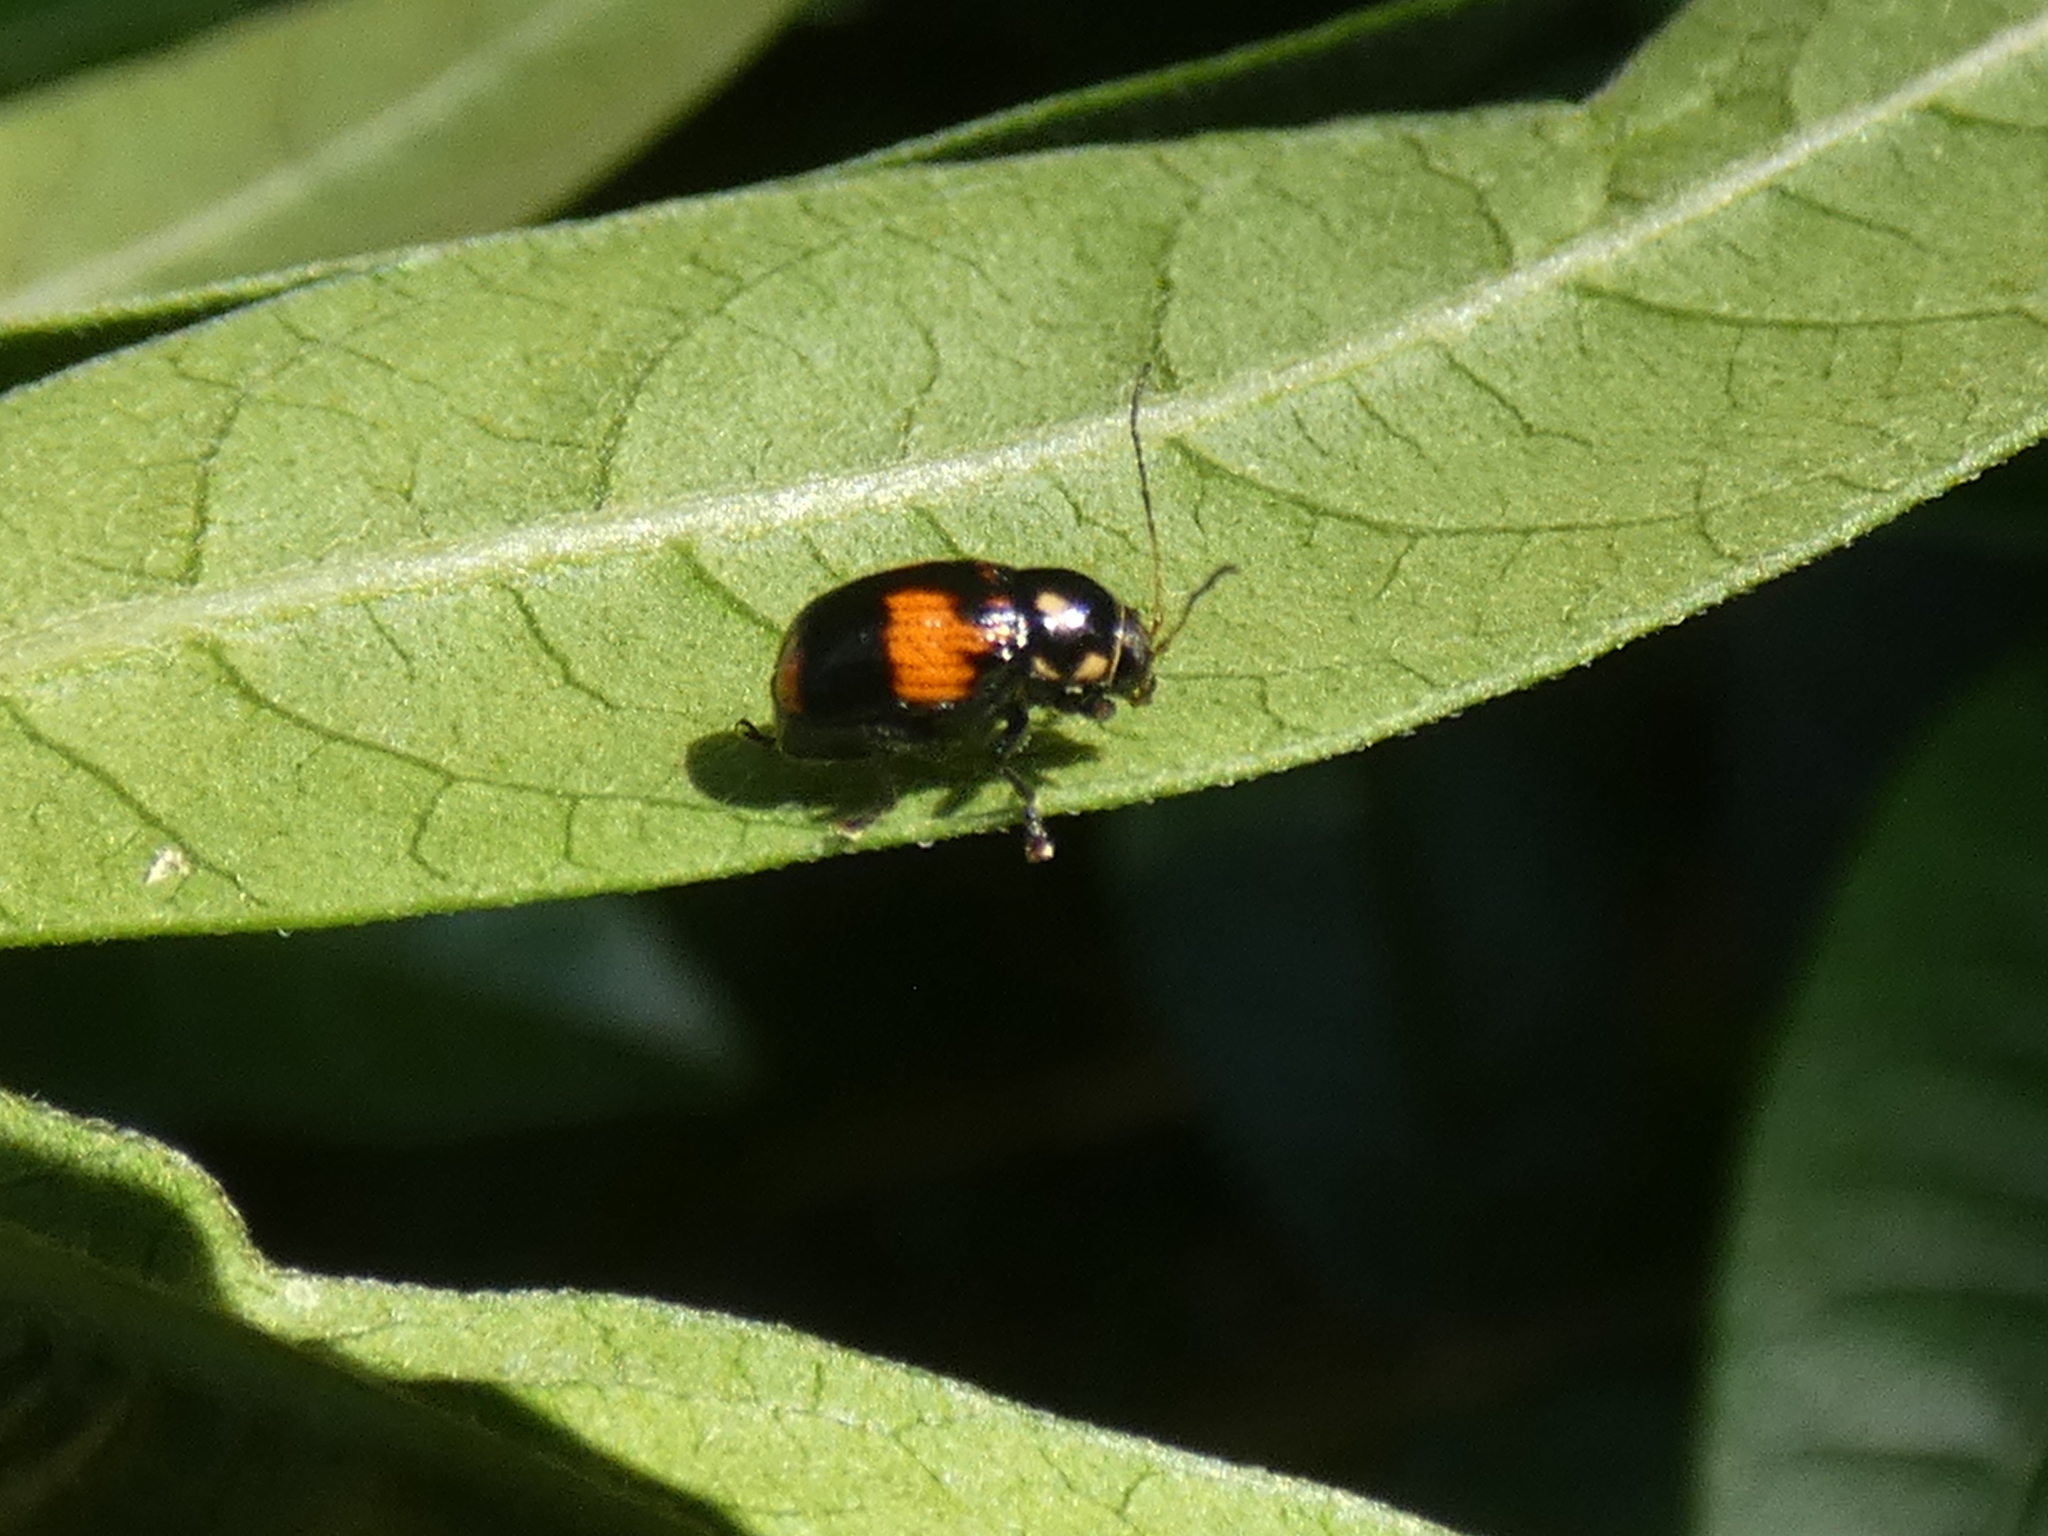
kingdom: Animalia
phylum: Arthropoda
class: Insecta
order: Coleoptera
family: Chrysomelidae
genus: Bassareus
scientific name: Bassareus mammifer
